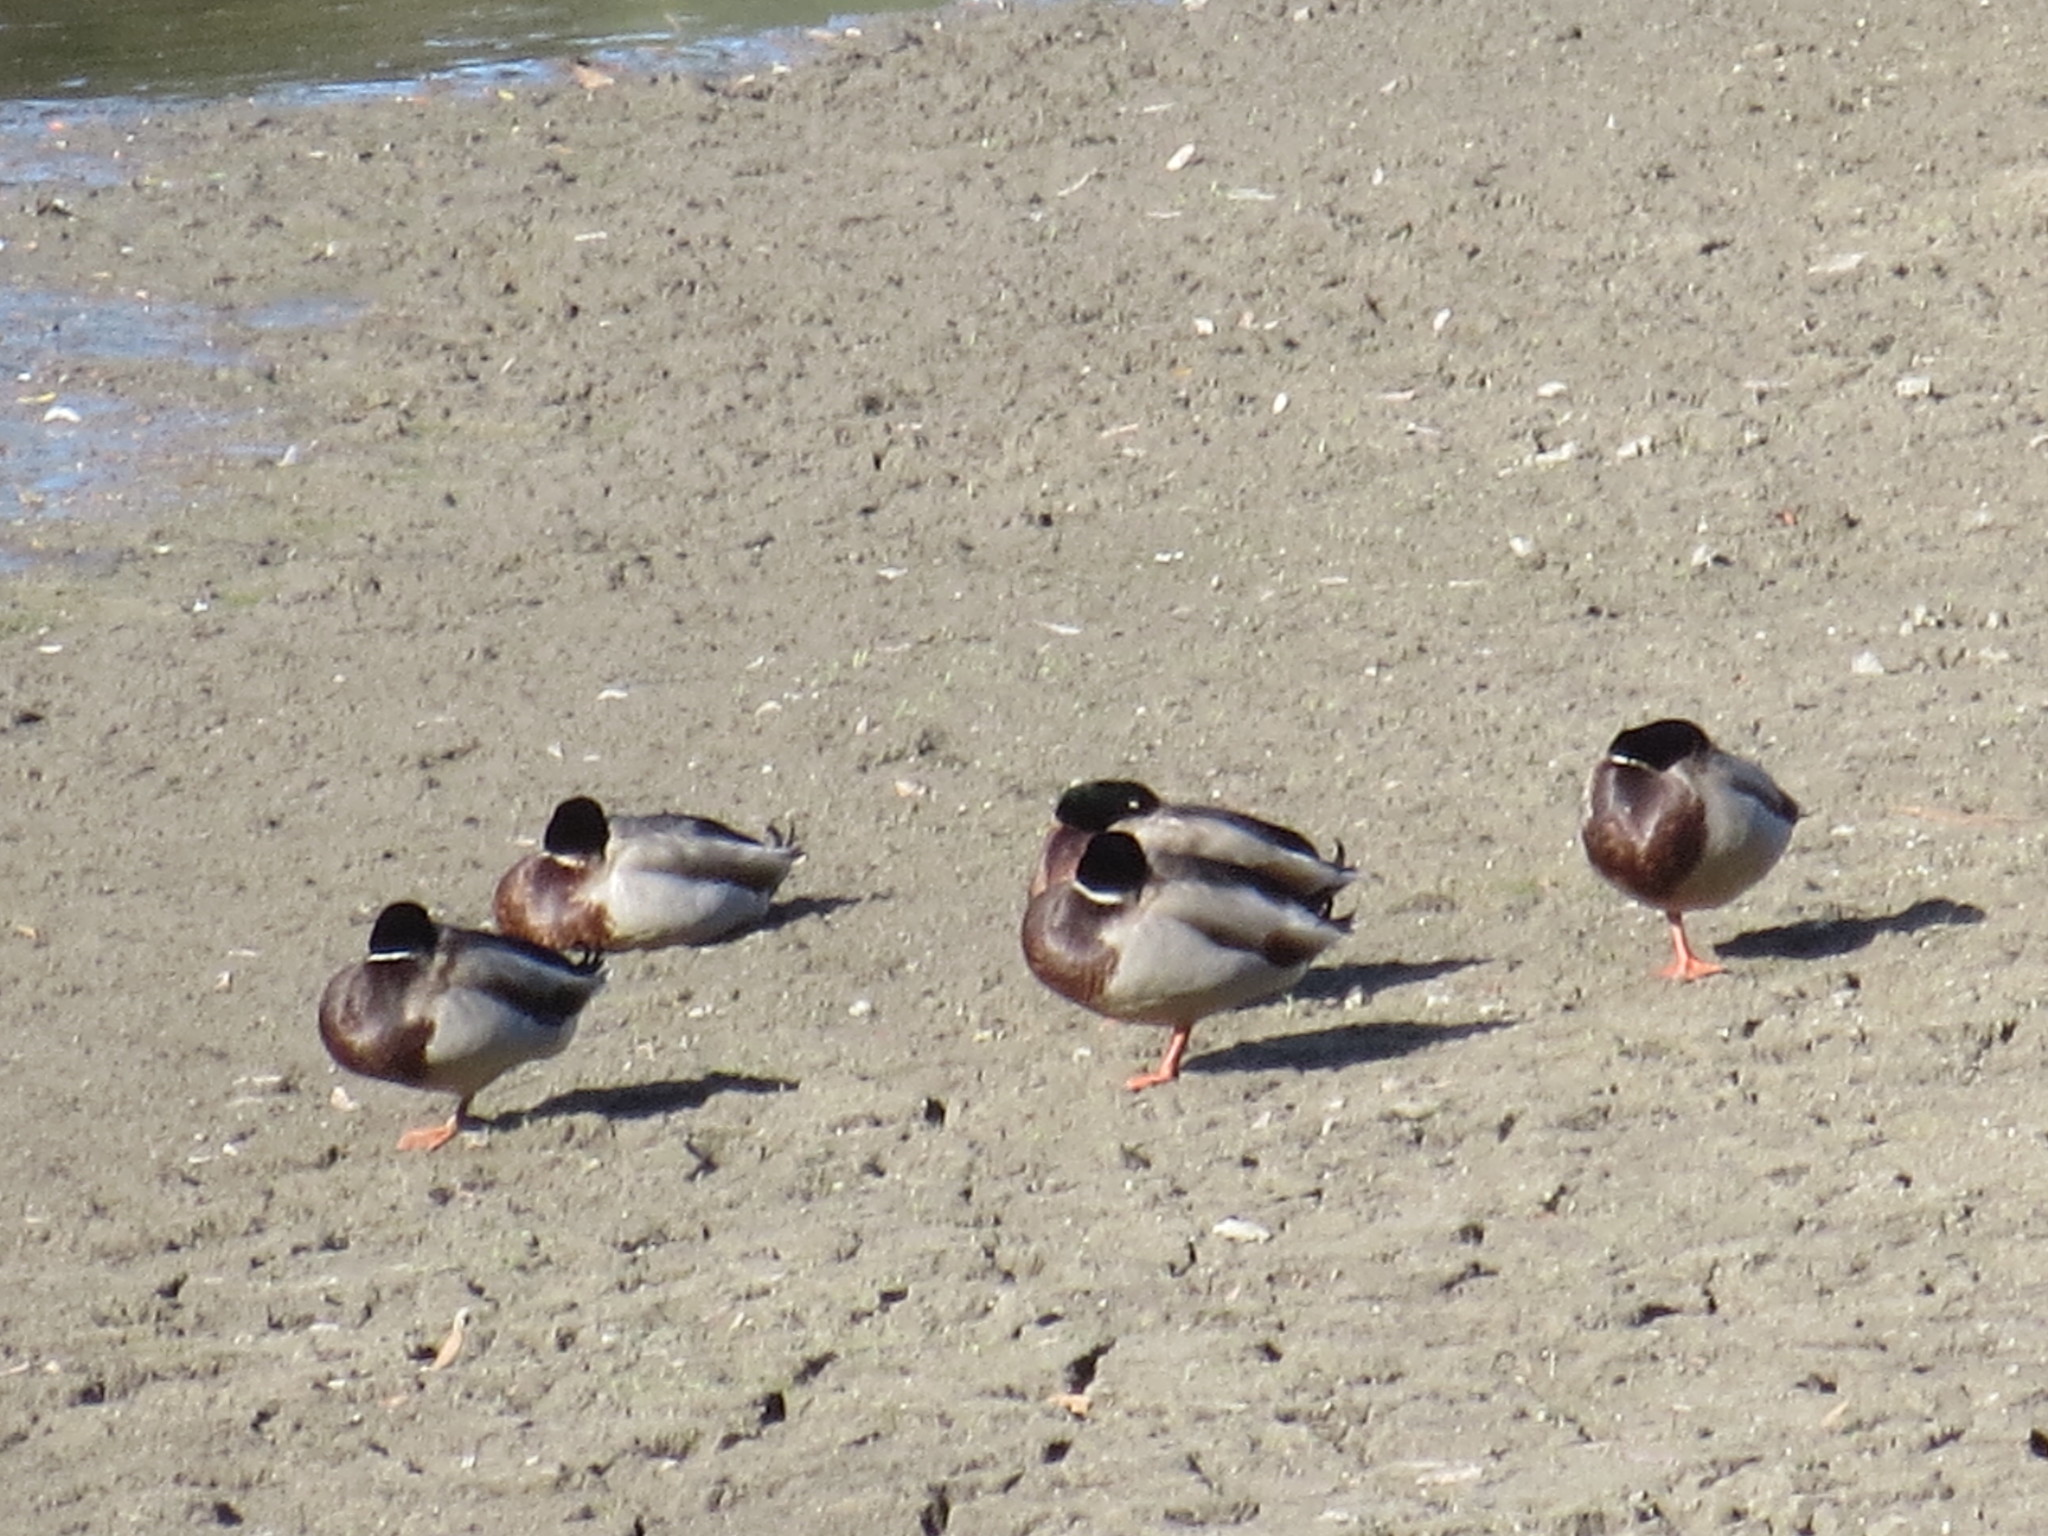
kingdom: Animalia
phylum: Chordata
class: Aves
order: Anseriformes
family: Anatidae
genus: Anas
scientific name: Anas platyrhynchos
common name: Mallard
